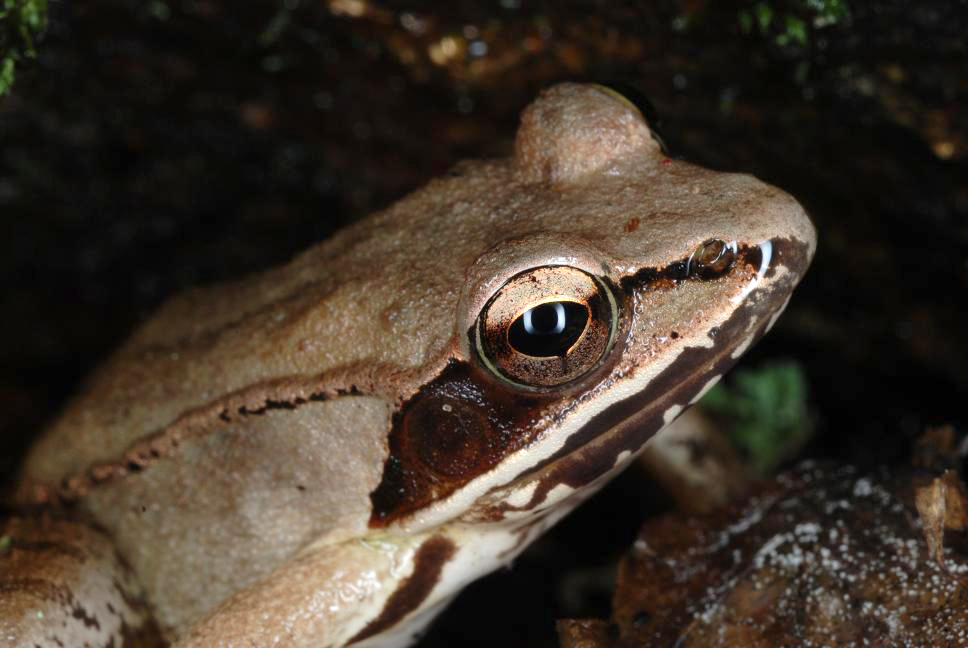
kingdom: Animalia
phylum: Chordata
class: Amphibia
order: Anura
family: Ranidae
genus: Lithobates
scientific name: Lithobates sylvaticus
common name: Wood frog
